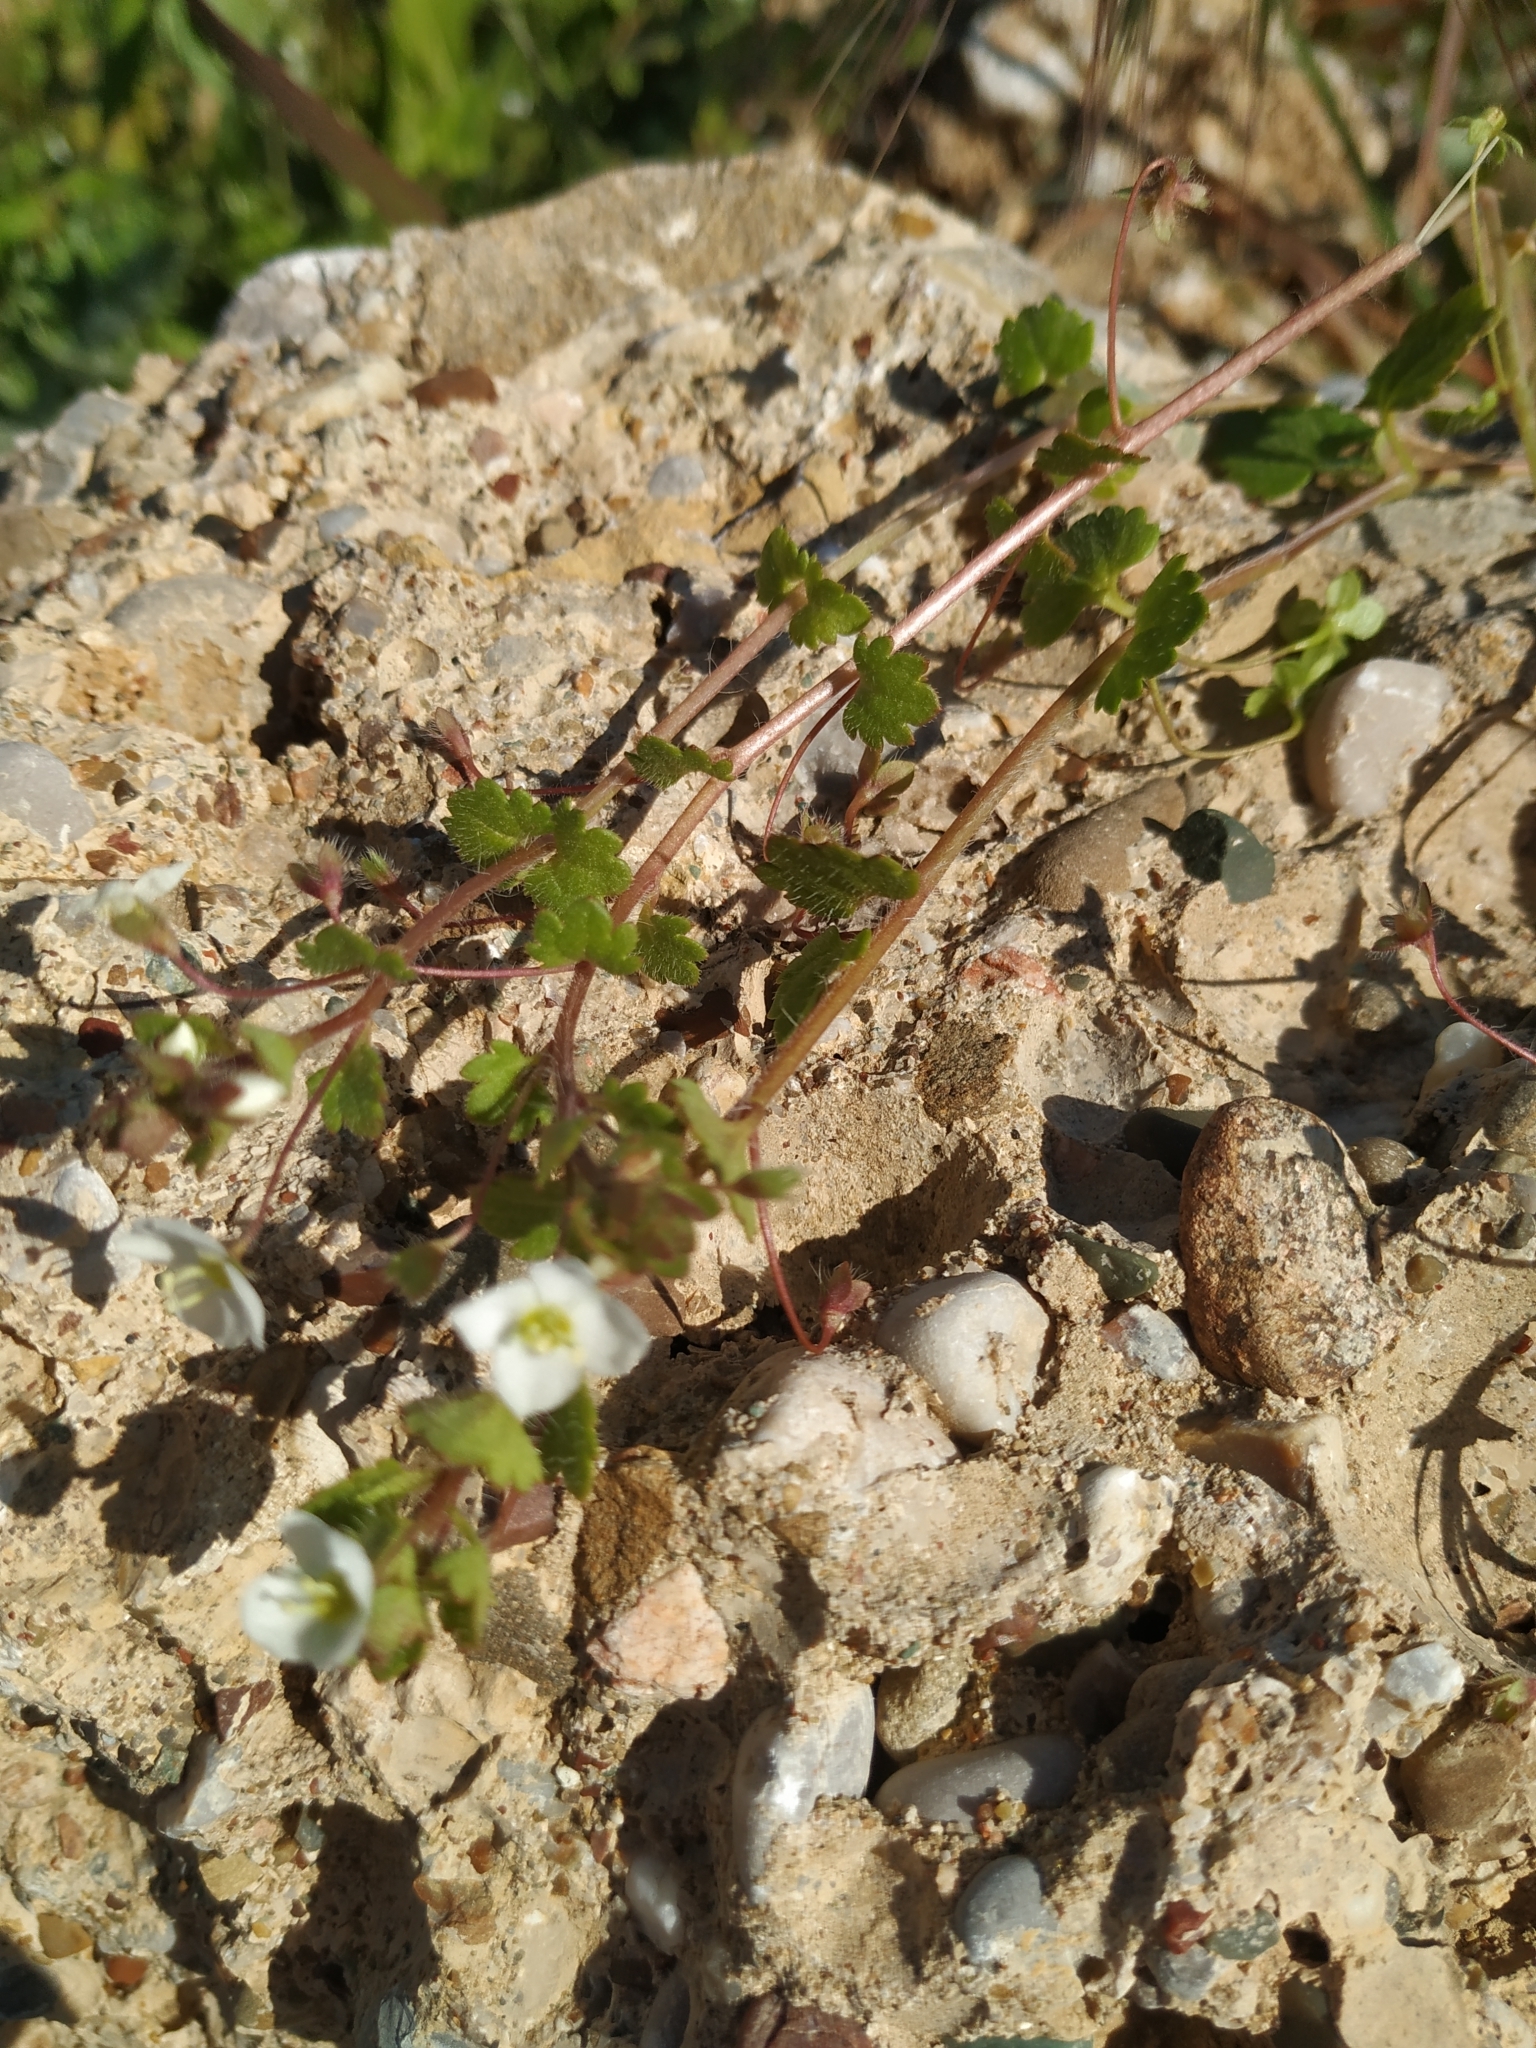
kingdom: Plantae
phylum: Tracheophyta
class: Magnoliopsida
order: Lamiales
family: Plantaginaceae
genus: Veronica
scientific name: Veronica cymbalaria
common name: Pale speedwell
